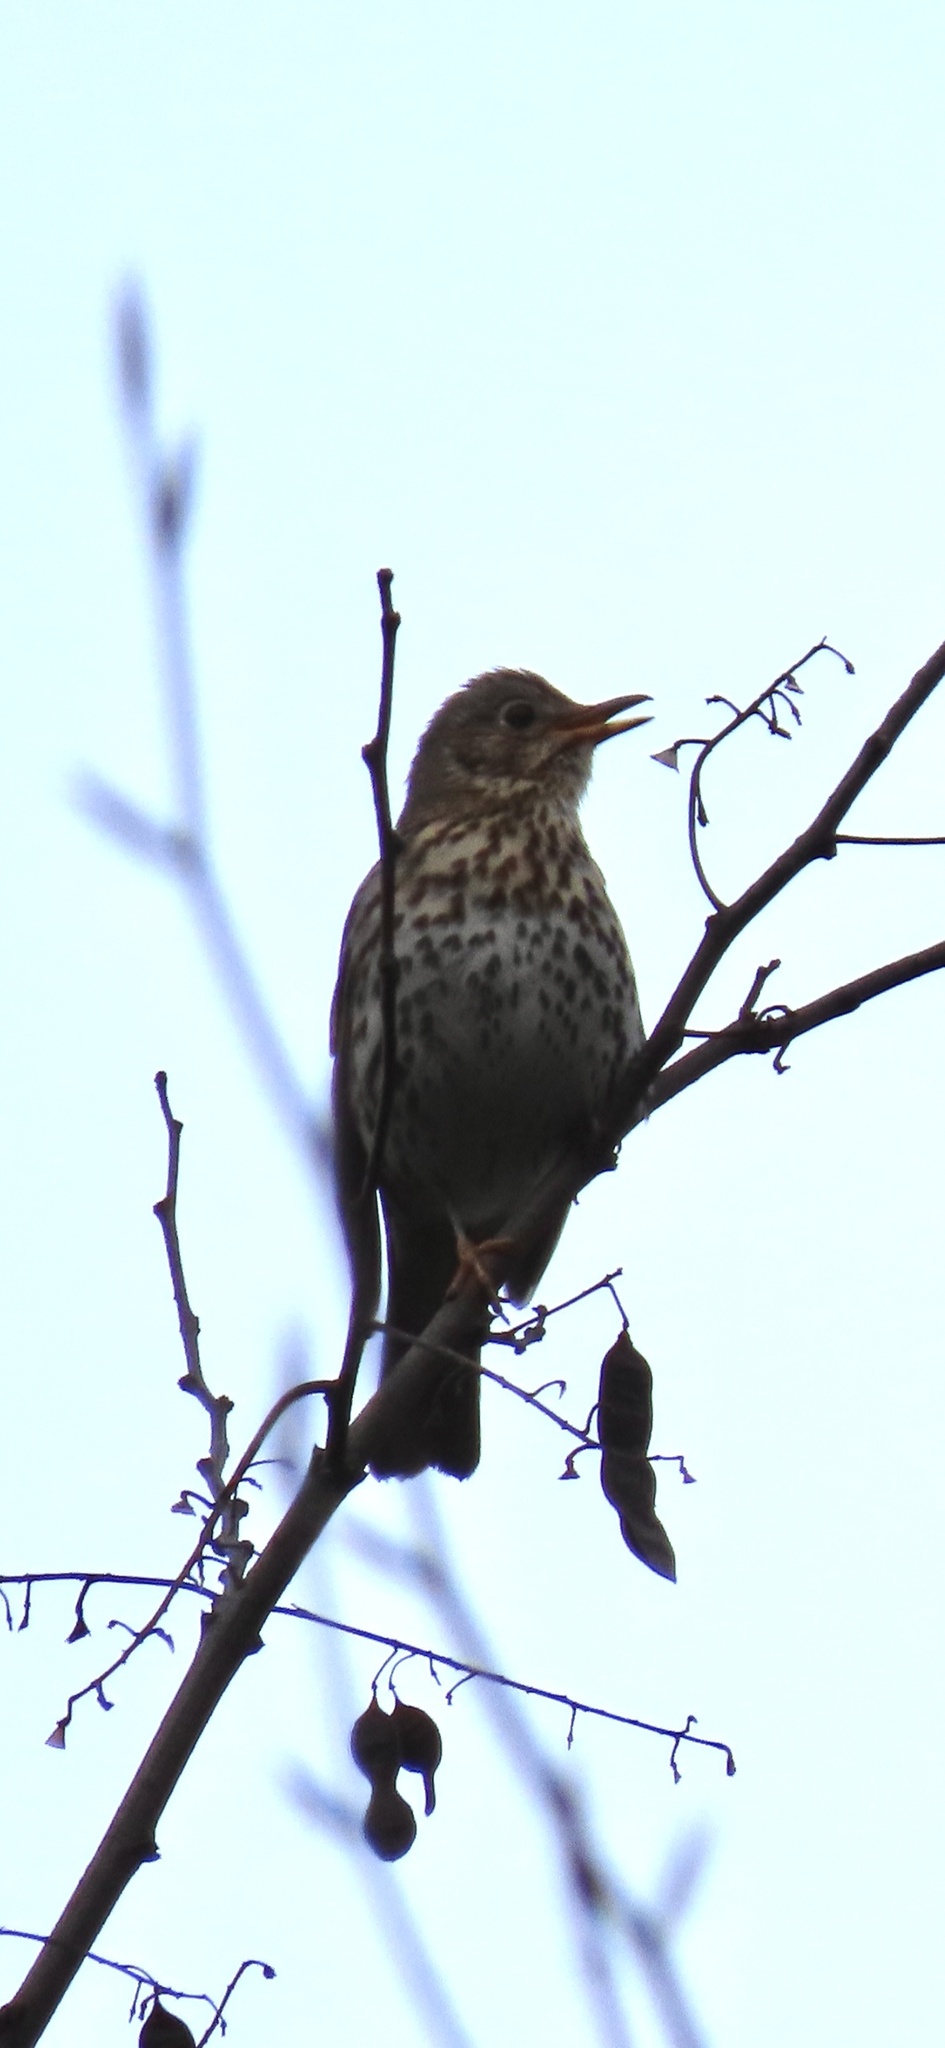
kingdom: Animalia
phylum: Chordata
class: Aves
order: Passeriformes
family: Turdidae
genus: Turdus
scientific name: Turdus philomelos
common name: Song thrush
